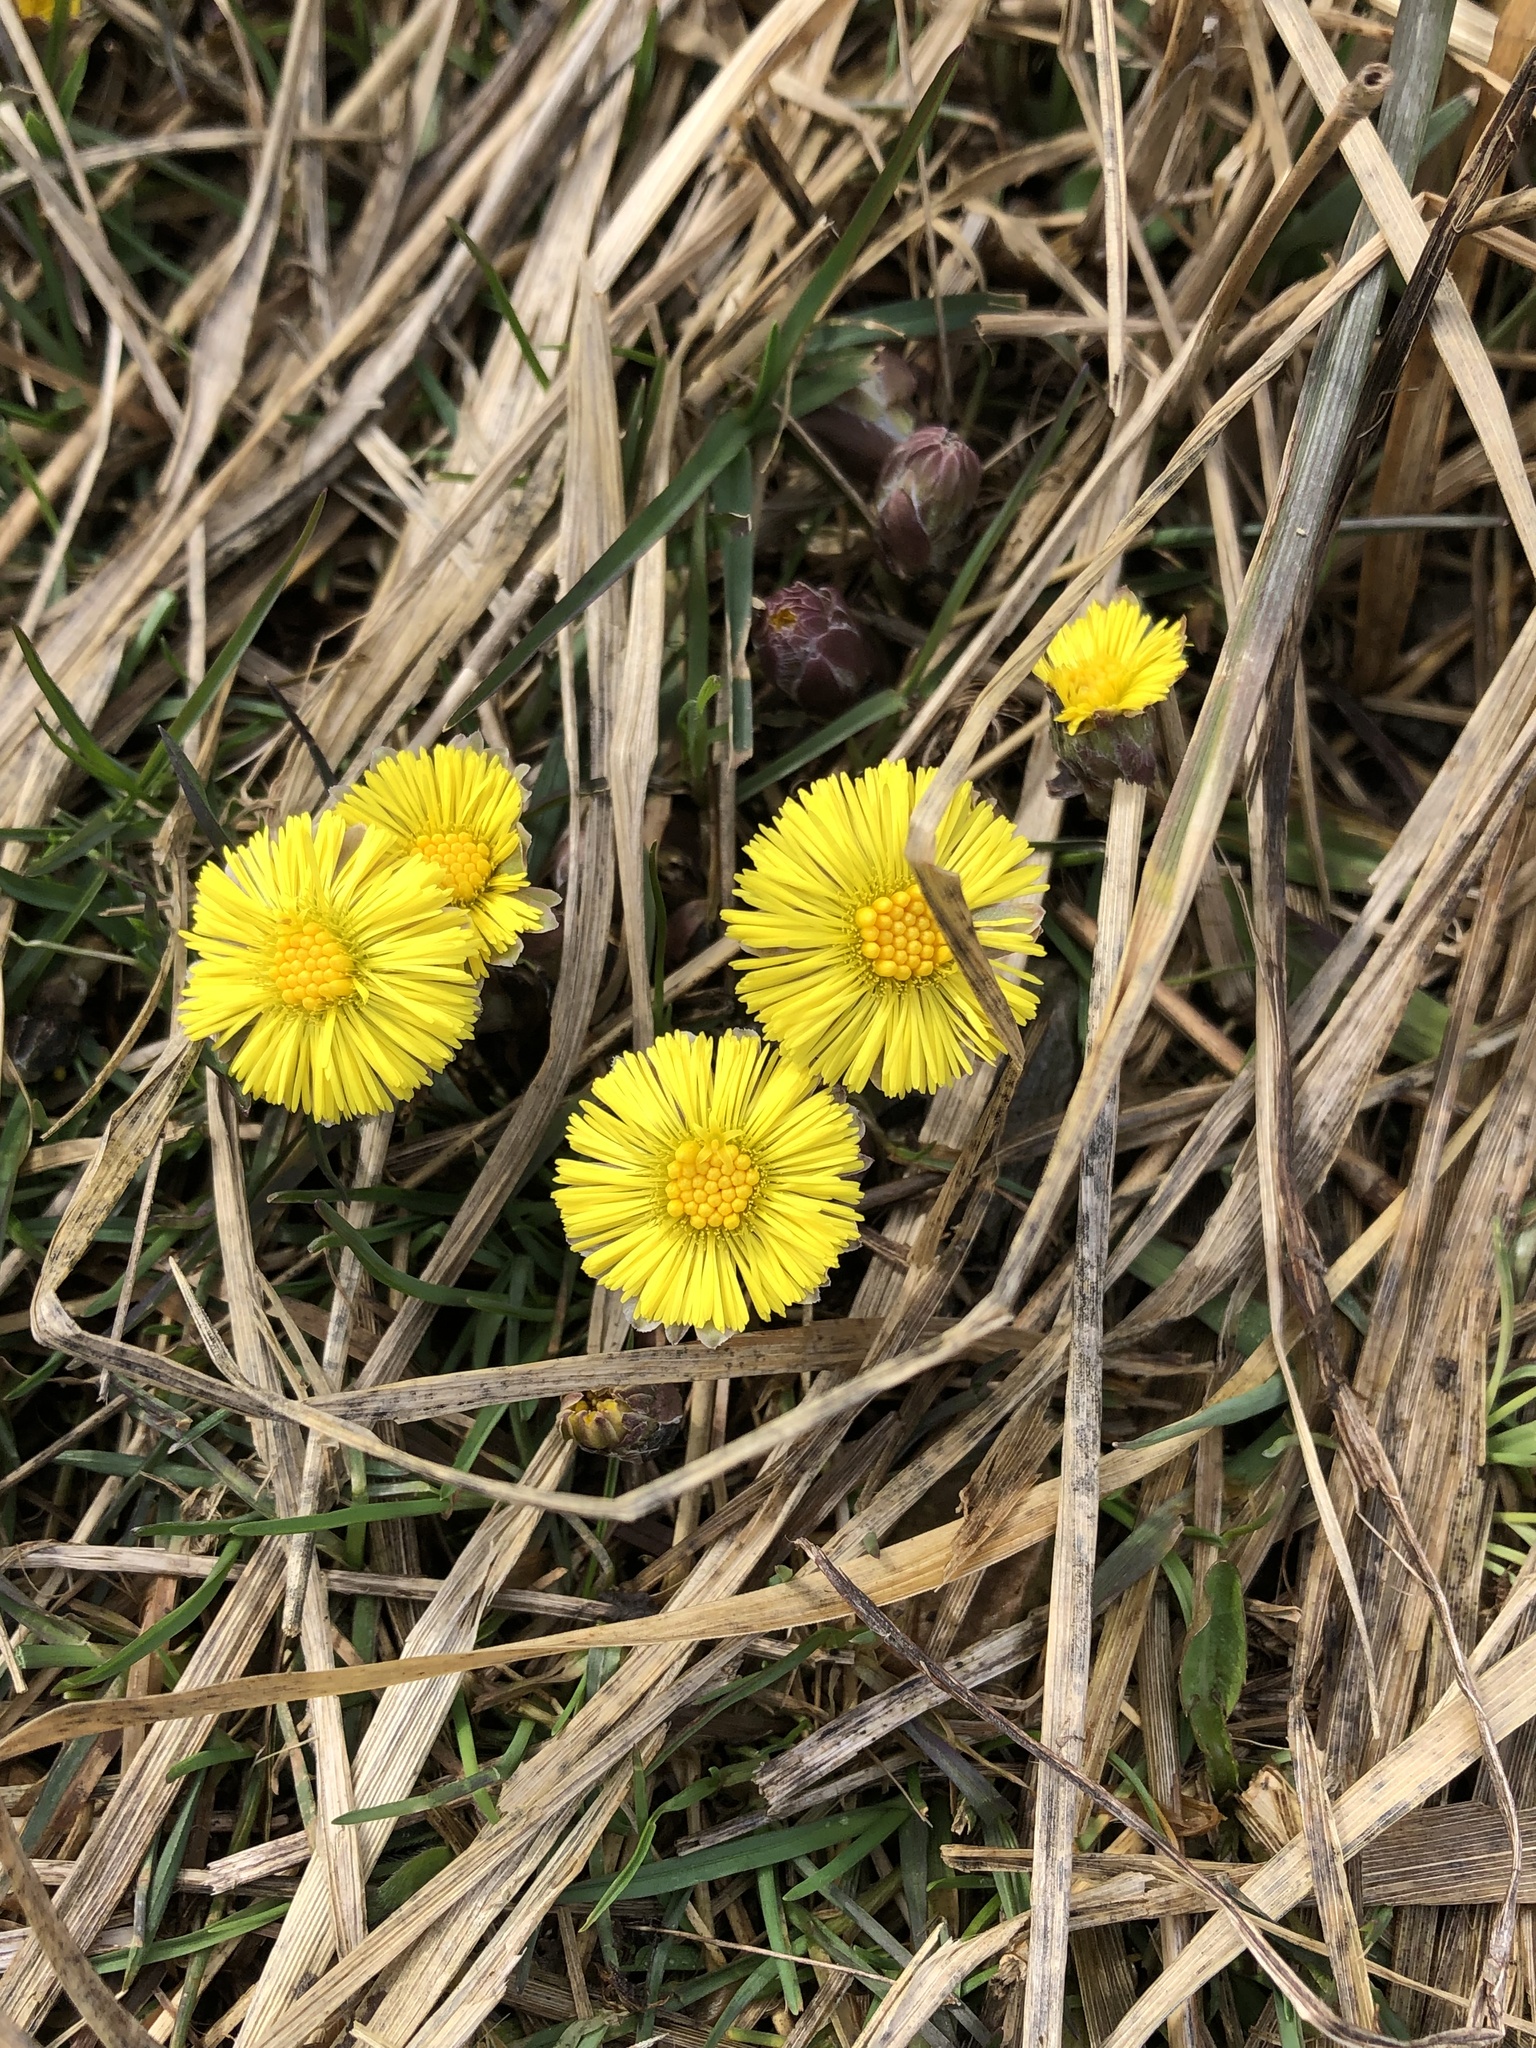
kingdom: Plantae
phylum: Tracheophyta
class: Magnoliopsida
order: Asterales
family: Asteraceae
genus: Tussilago
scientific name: Tussilago farfara
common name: Coltsfoot
